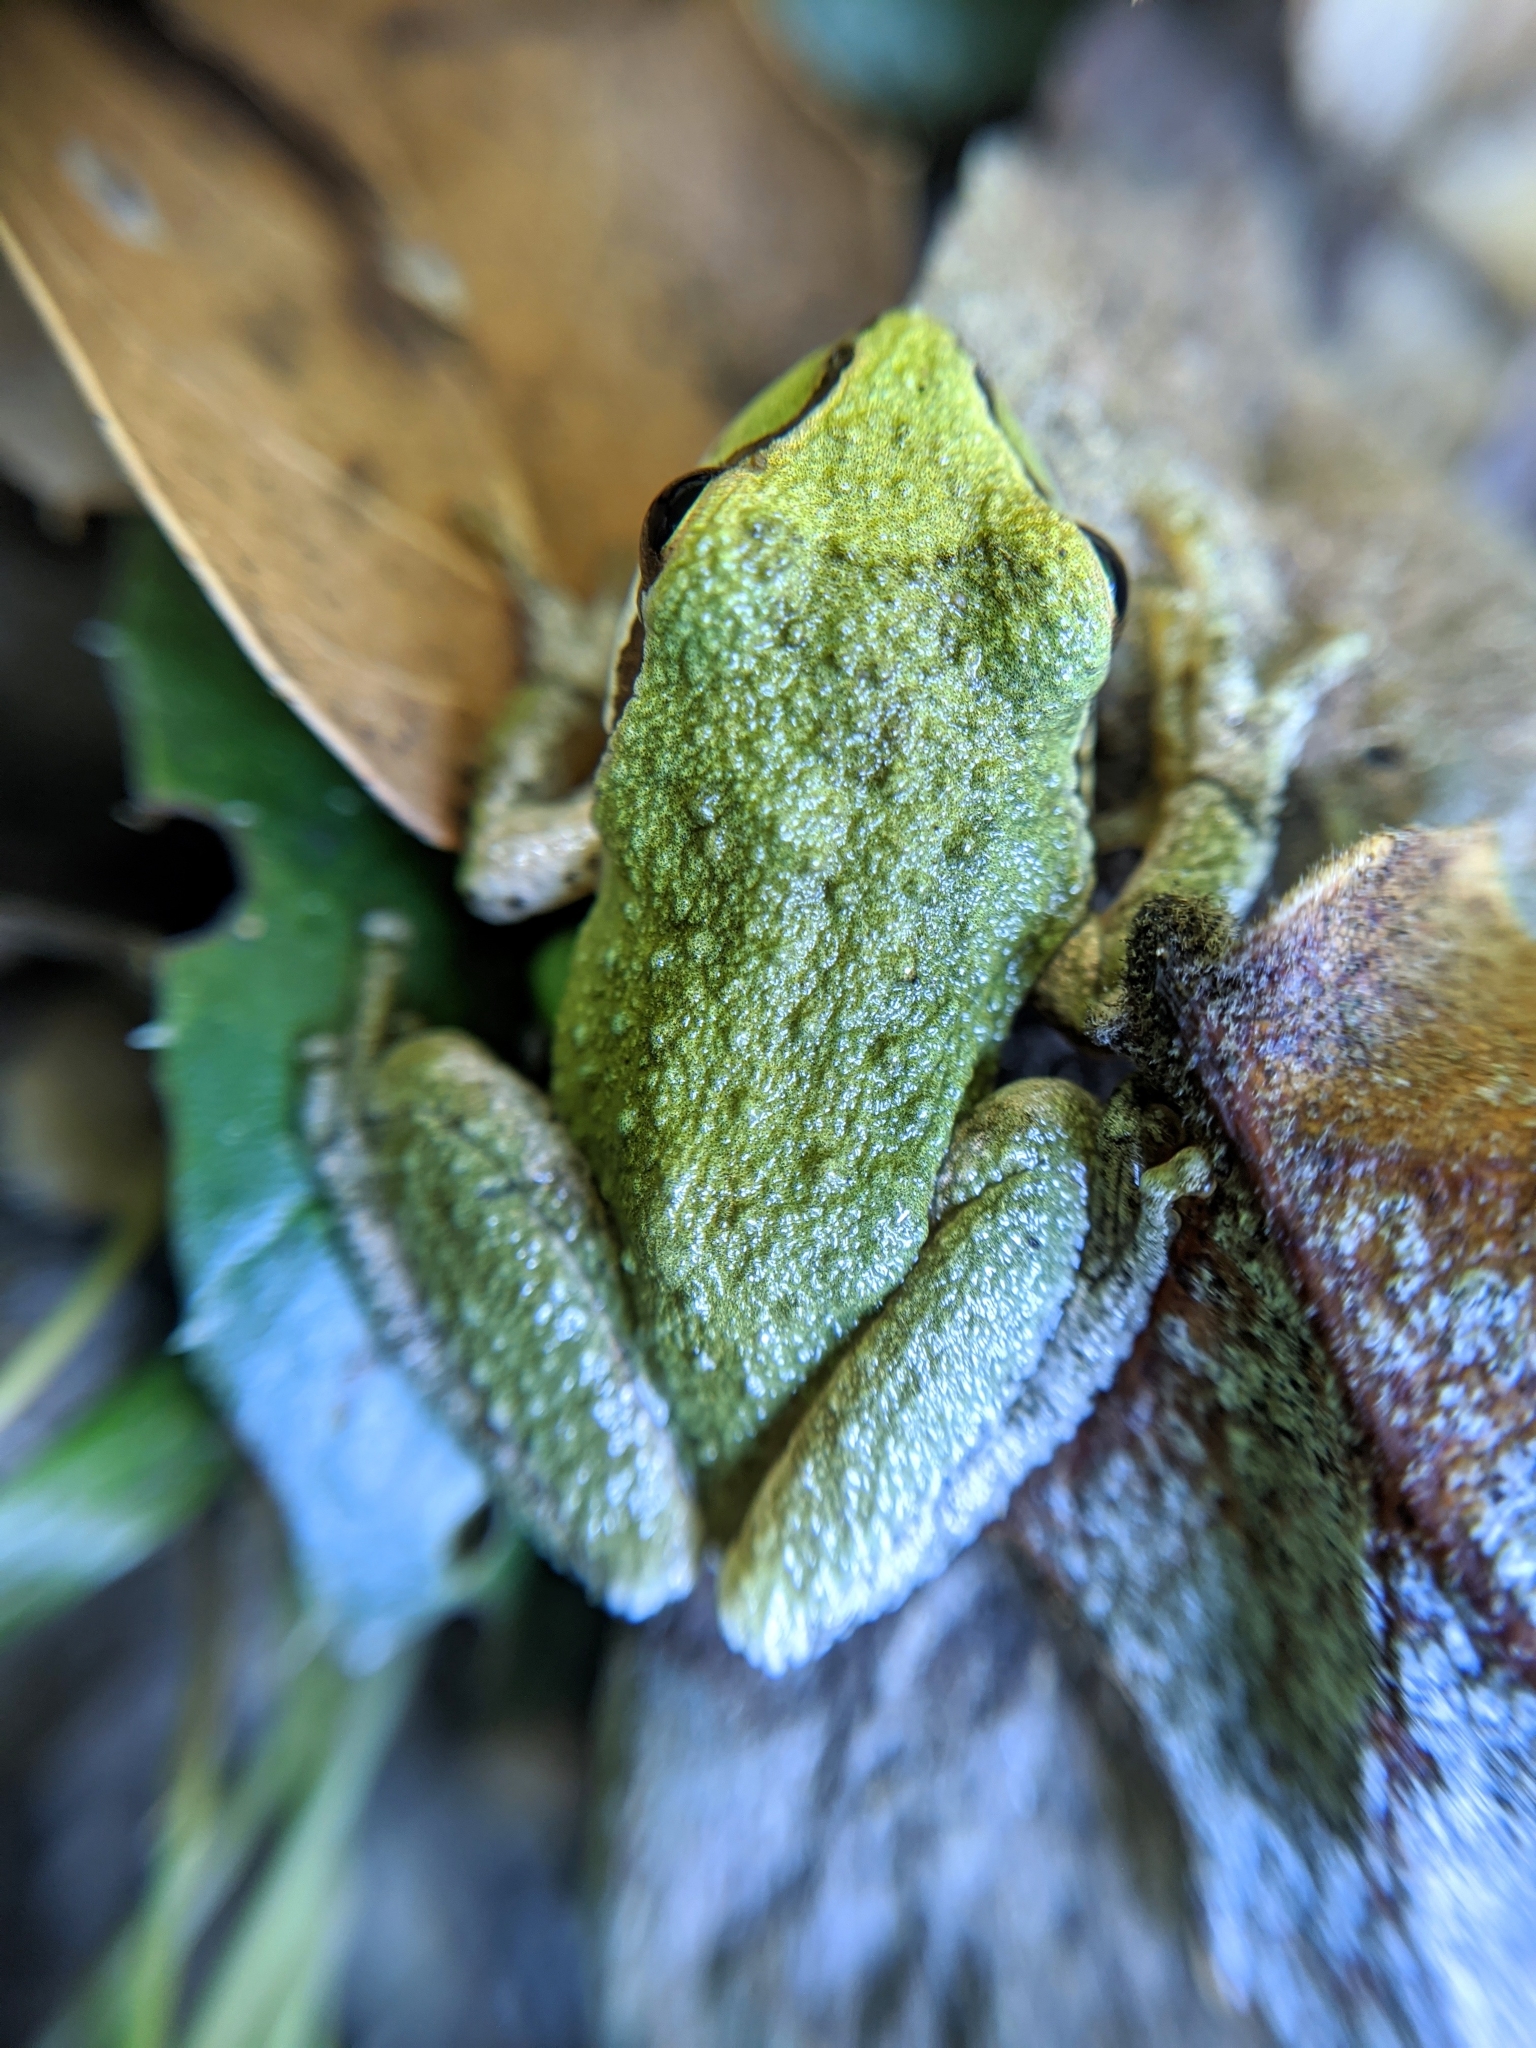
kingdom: Animalia
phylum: Chordata
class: Amphibia
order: Anura
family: Hylidae
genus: Pseudacris
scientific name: Pseudacris regilla
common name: Pacific chorus frog
